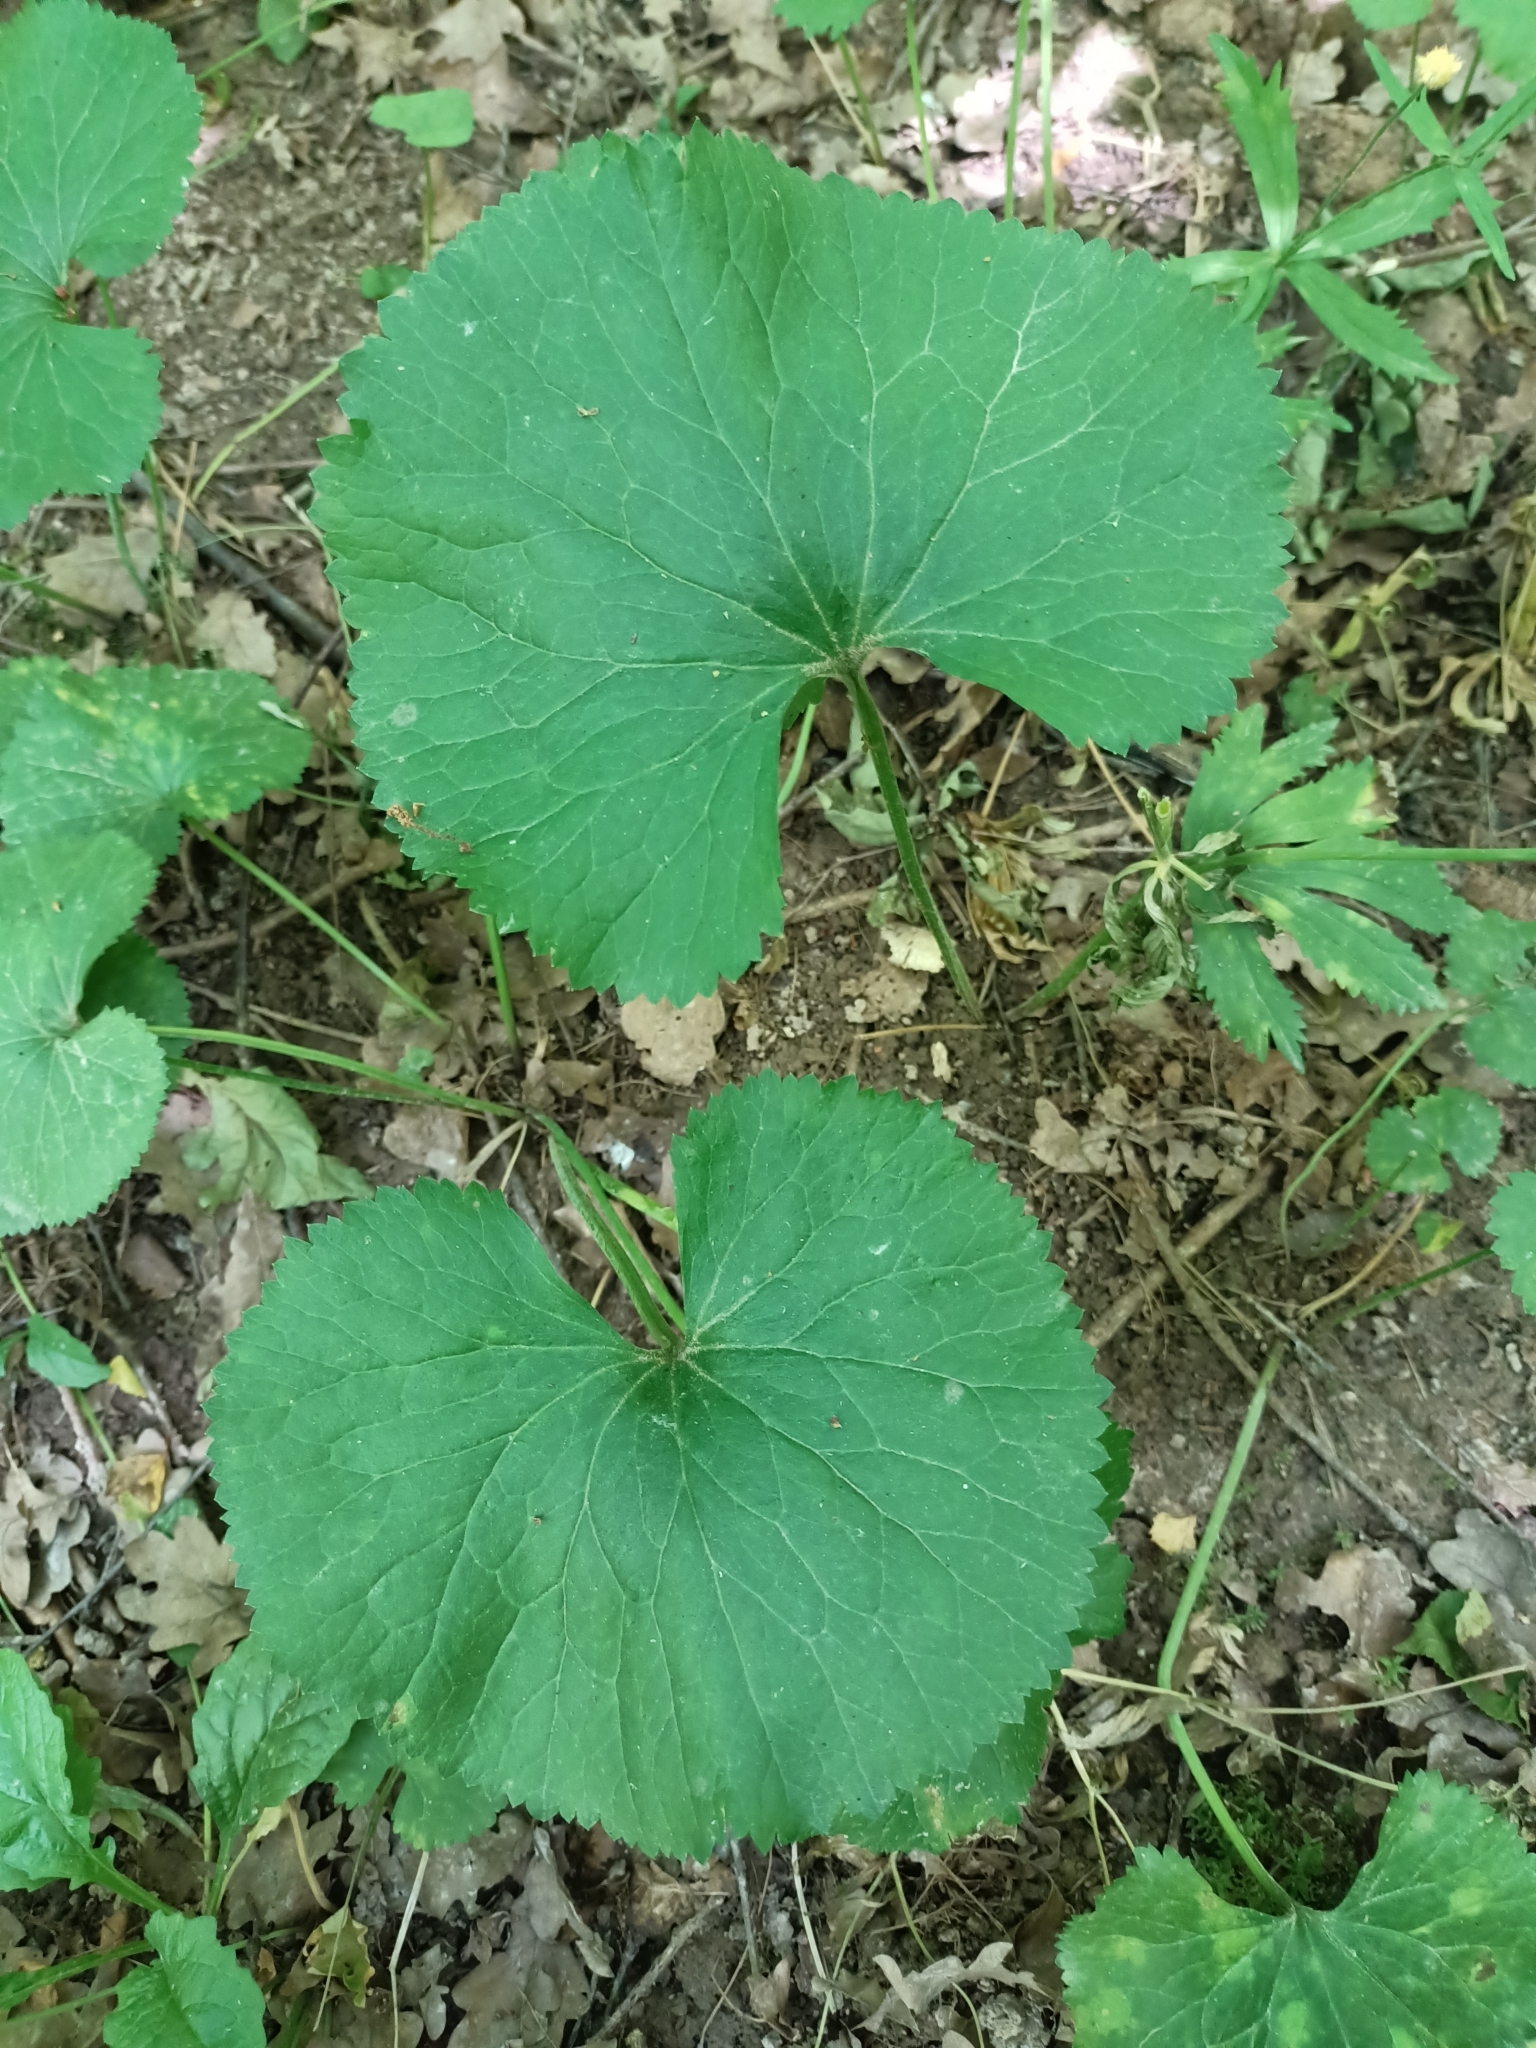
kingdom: Plantae
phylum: Tracheophyta
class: Magnoliopsida
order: Ranunculales
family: Ranunculaceae
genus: Ranunculus
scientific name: Ranunculus cassubicus
